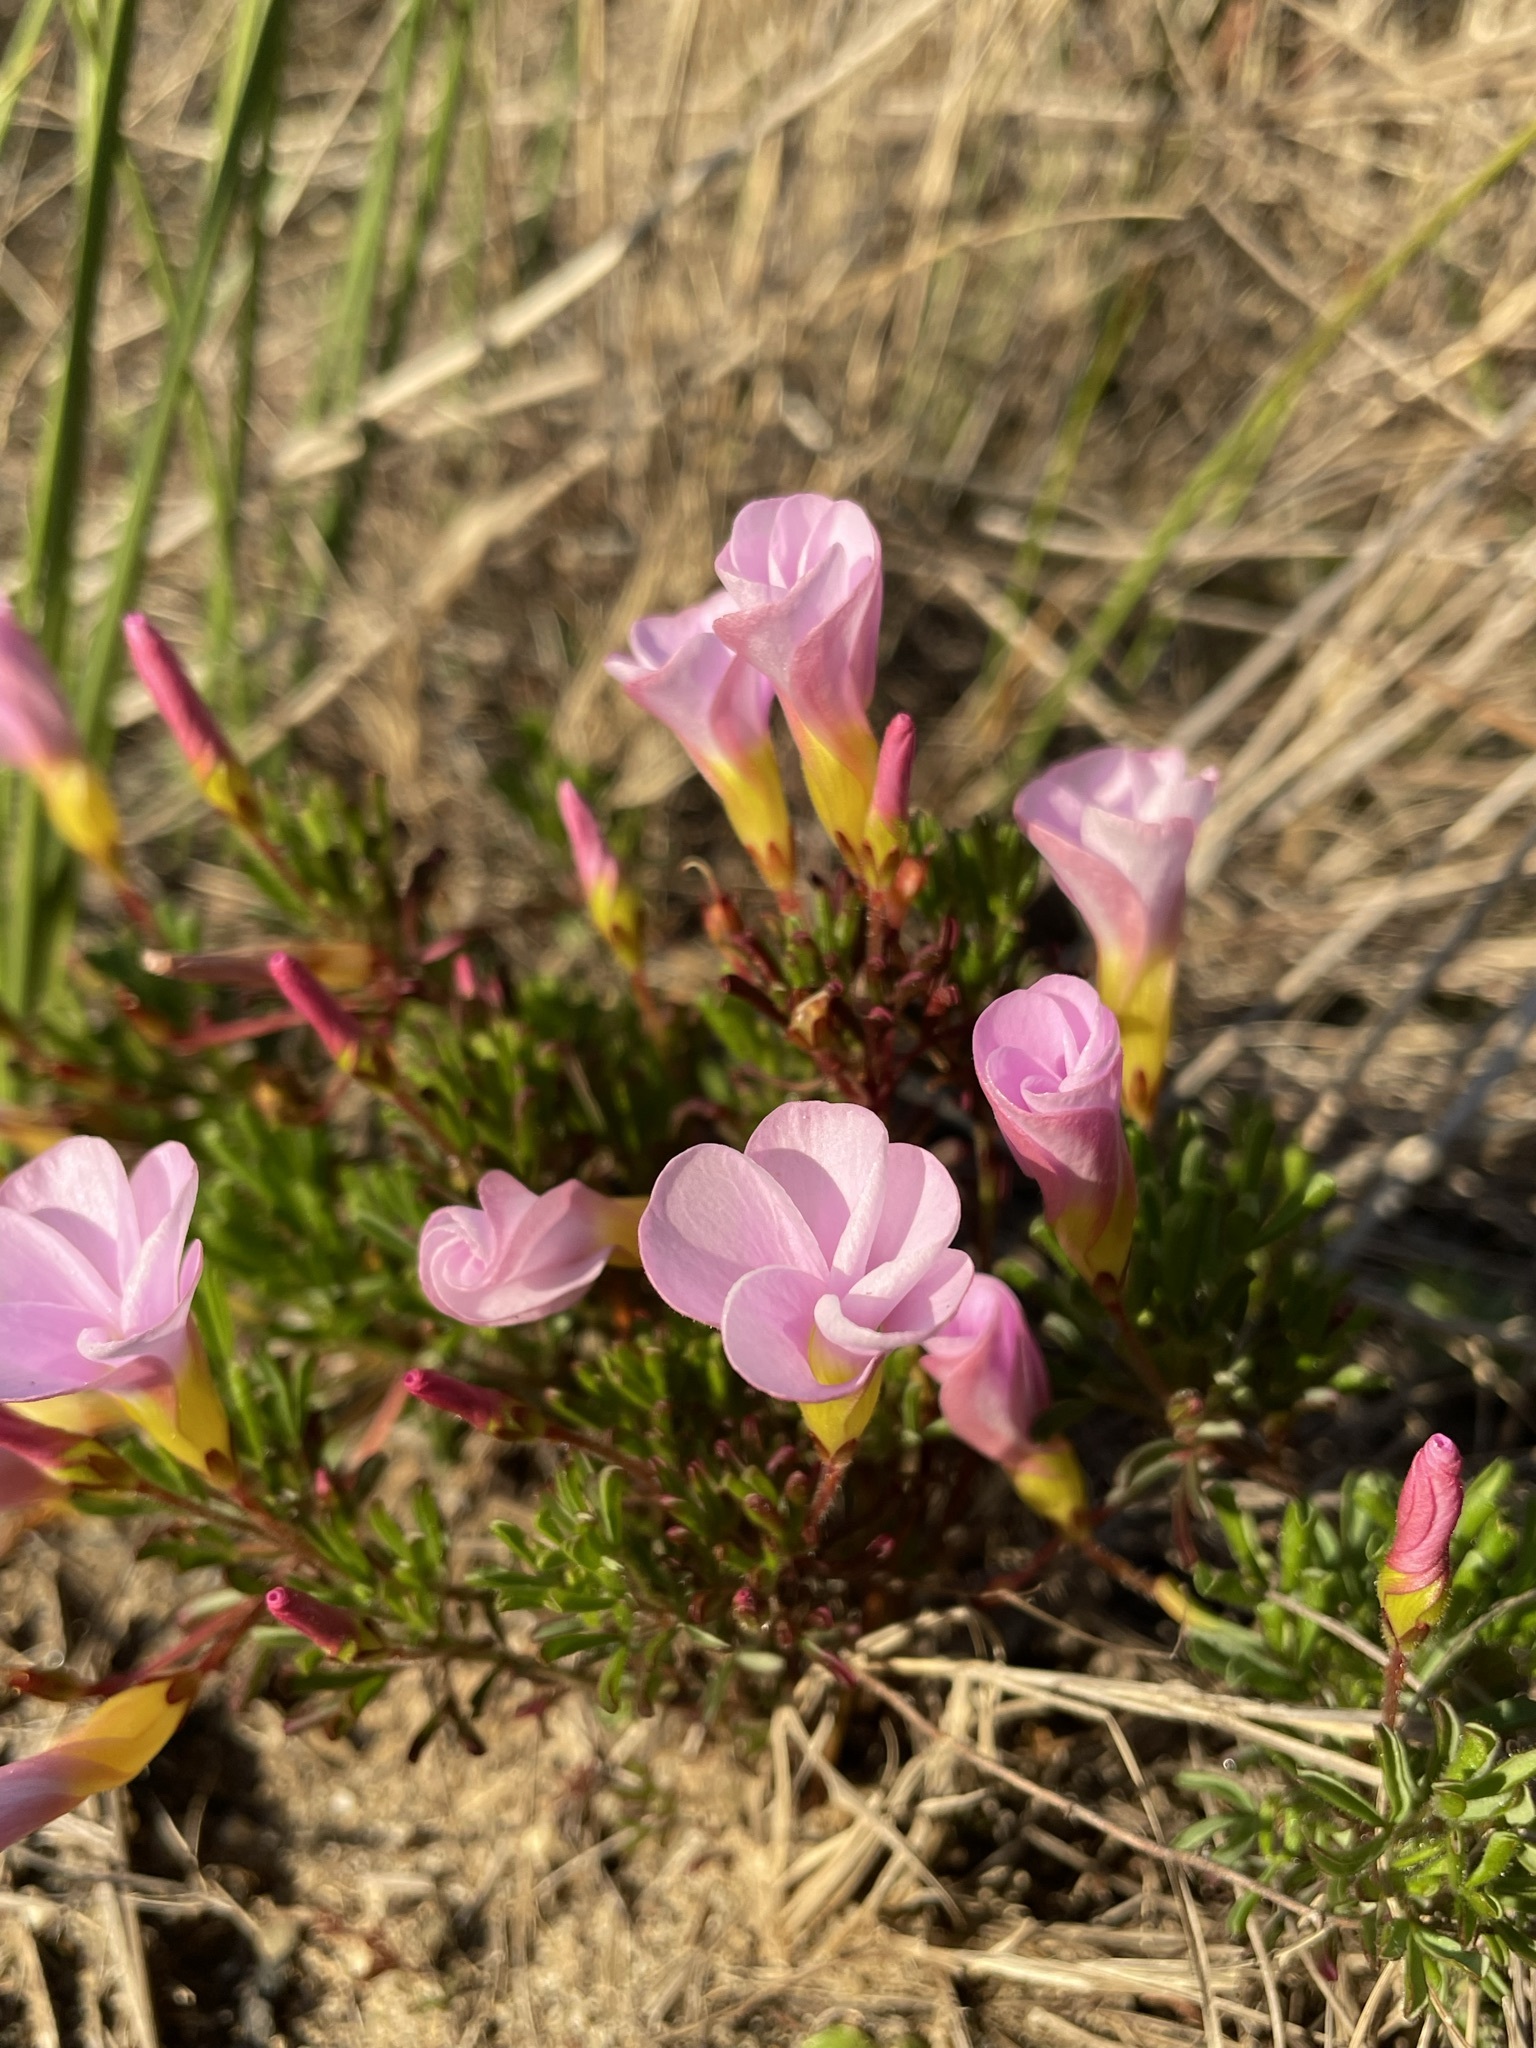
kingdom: Plantae
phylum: Tracheophyta
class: Magnoliopsida
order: Oxalidales
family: Oxalidaceae
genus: Oxalis
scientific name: Oxalis recticaulis
